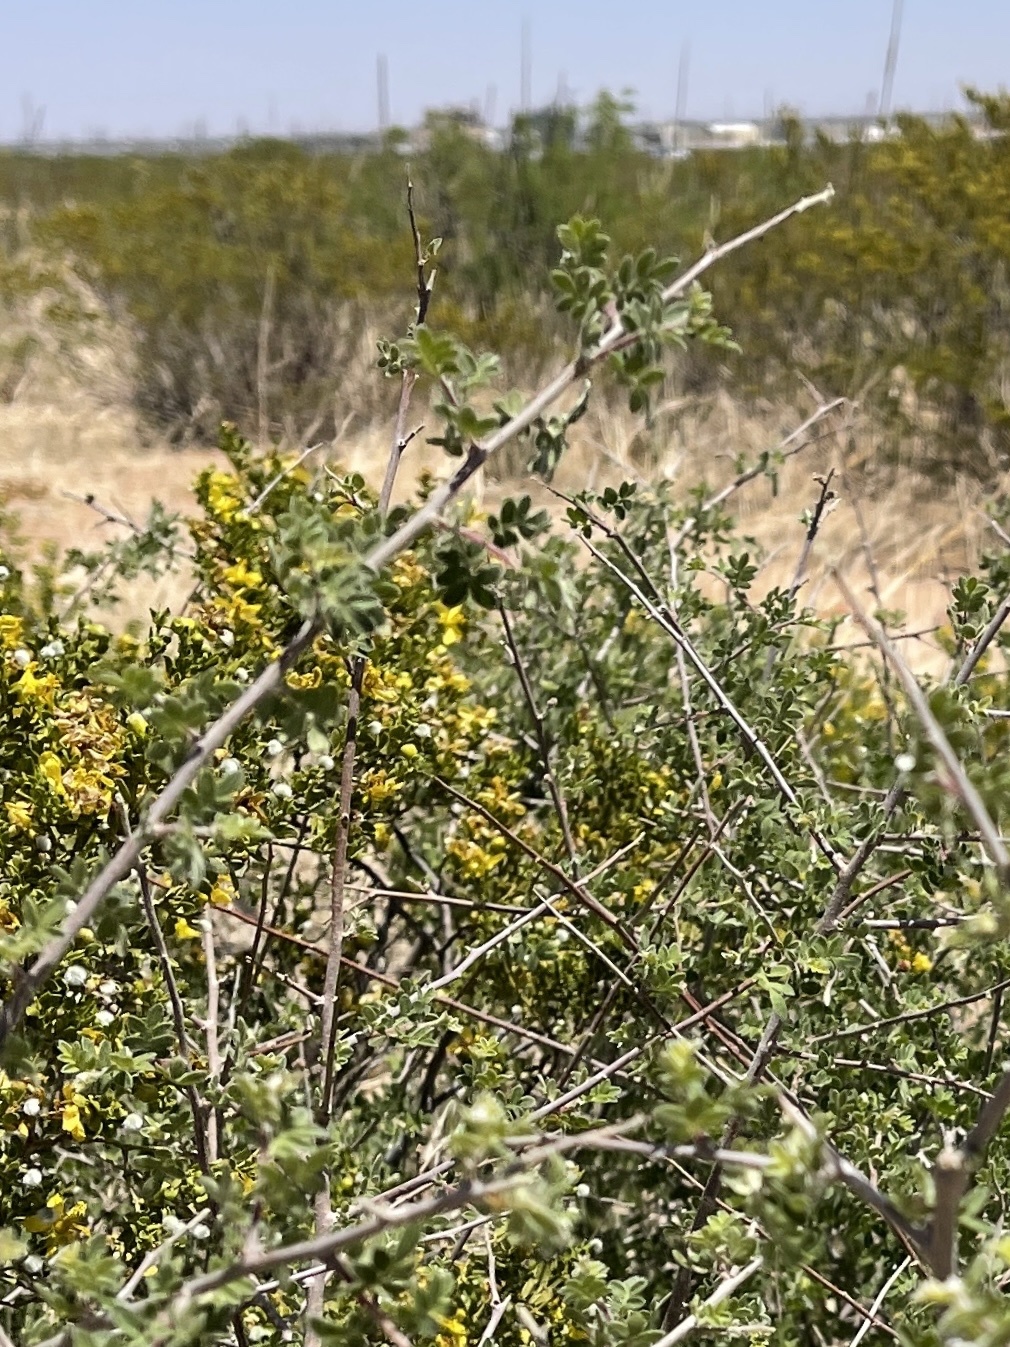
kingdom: Plantae
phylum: Tracheophyta
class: Magnoliopsida
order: Sapindales
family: Anacardiaceae
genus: Rhus
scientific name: Rhus microphylla
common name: Desert sumac
